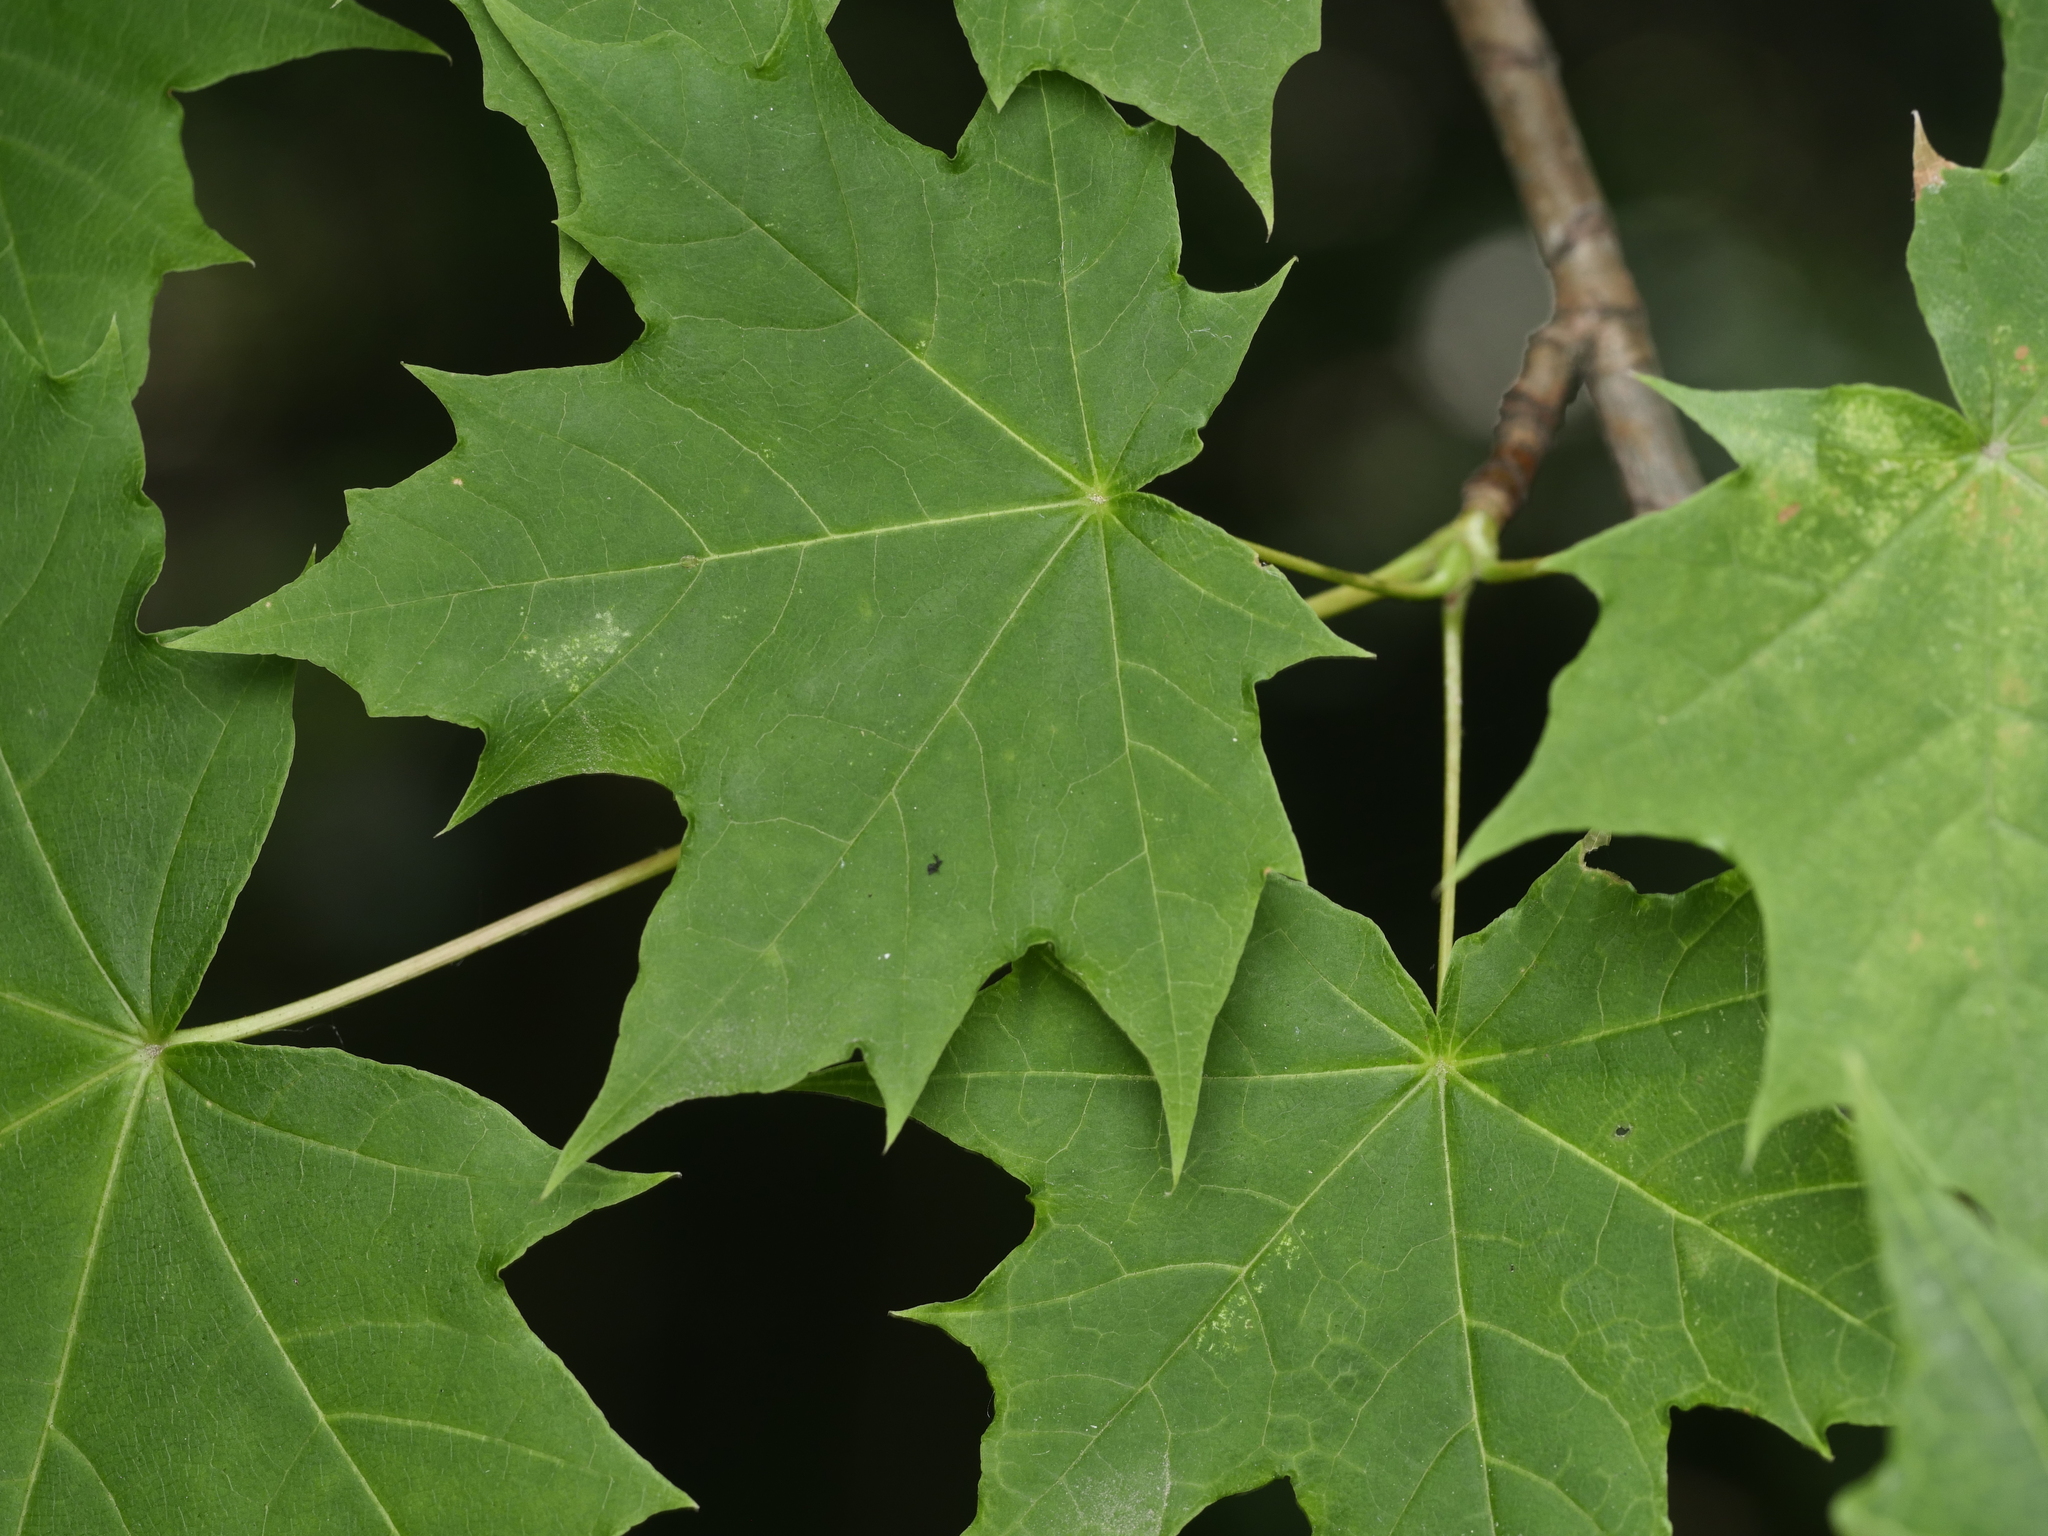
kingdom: Plantae
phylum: Tracheophyta
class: Magnoliopsida
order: Sapindales
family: Sapindaceae
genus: Acer
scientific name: Acer platanoides
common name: Norway maple
